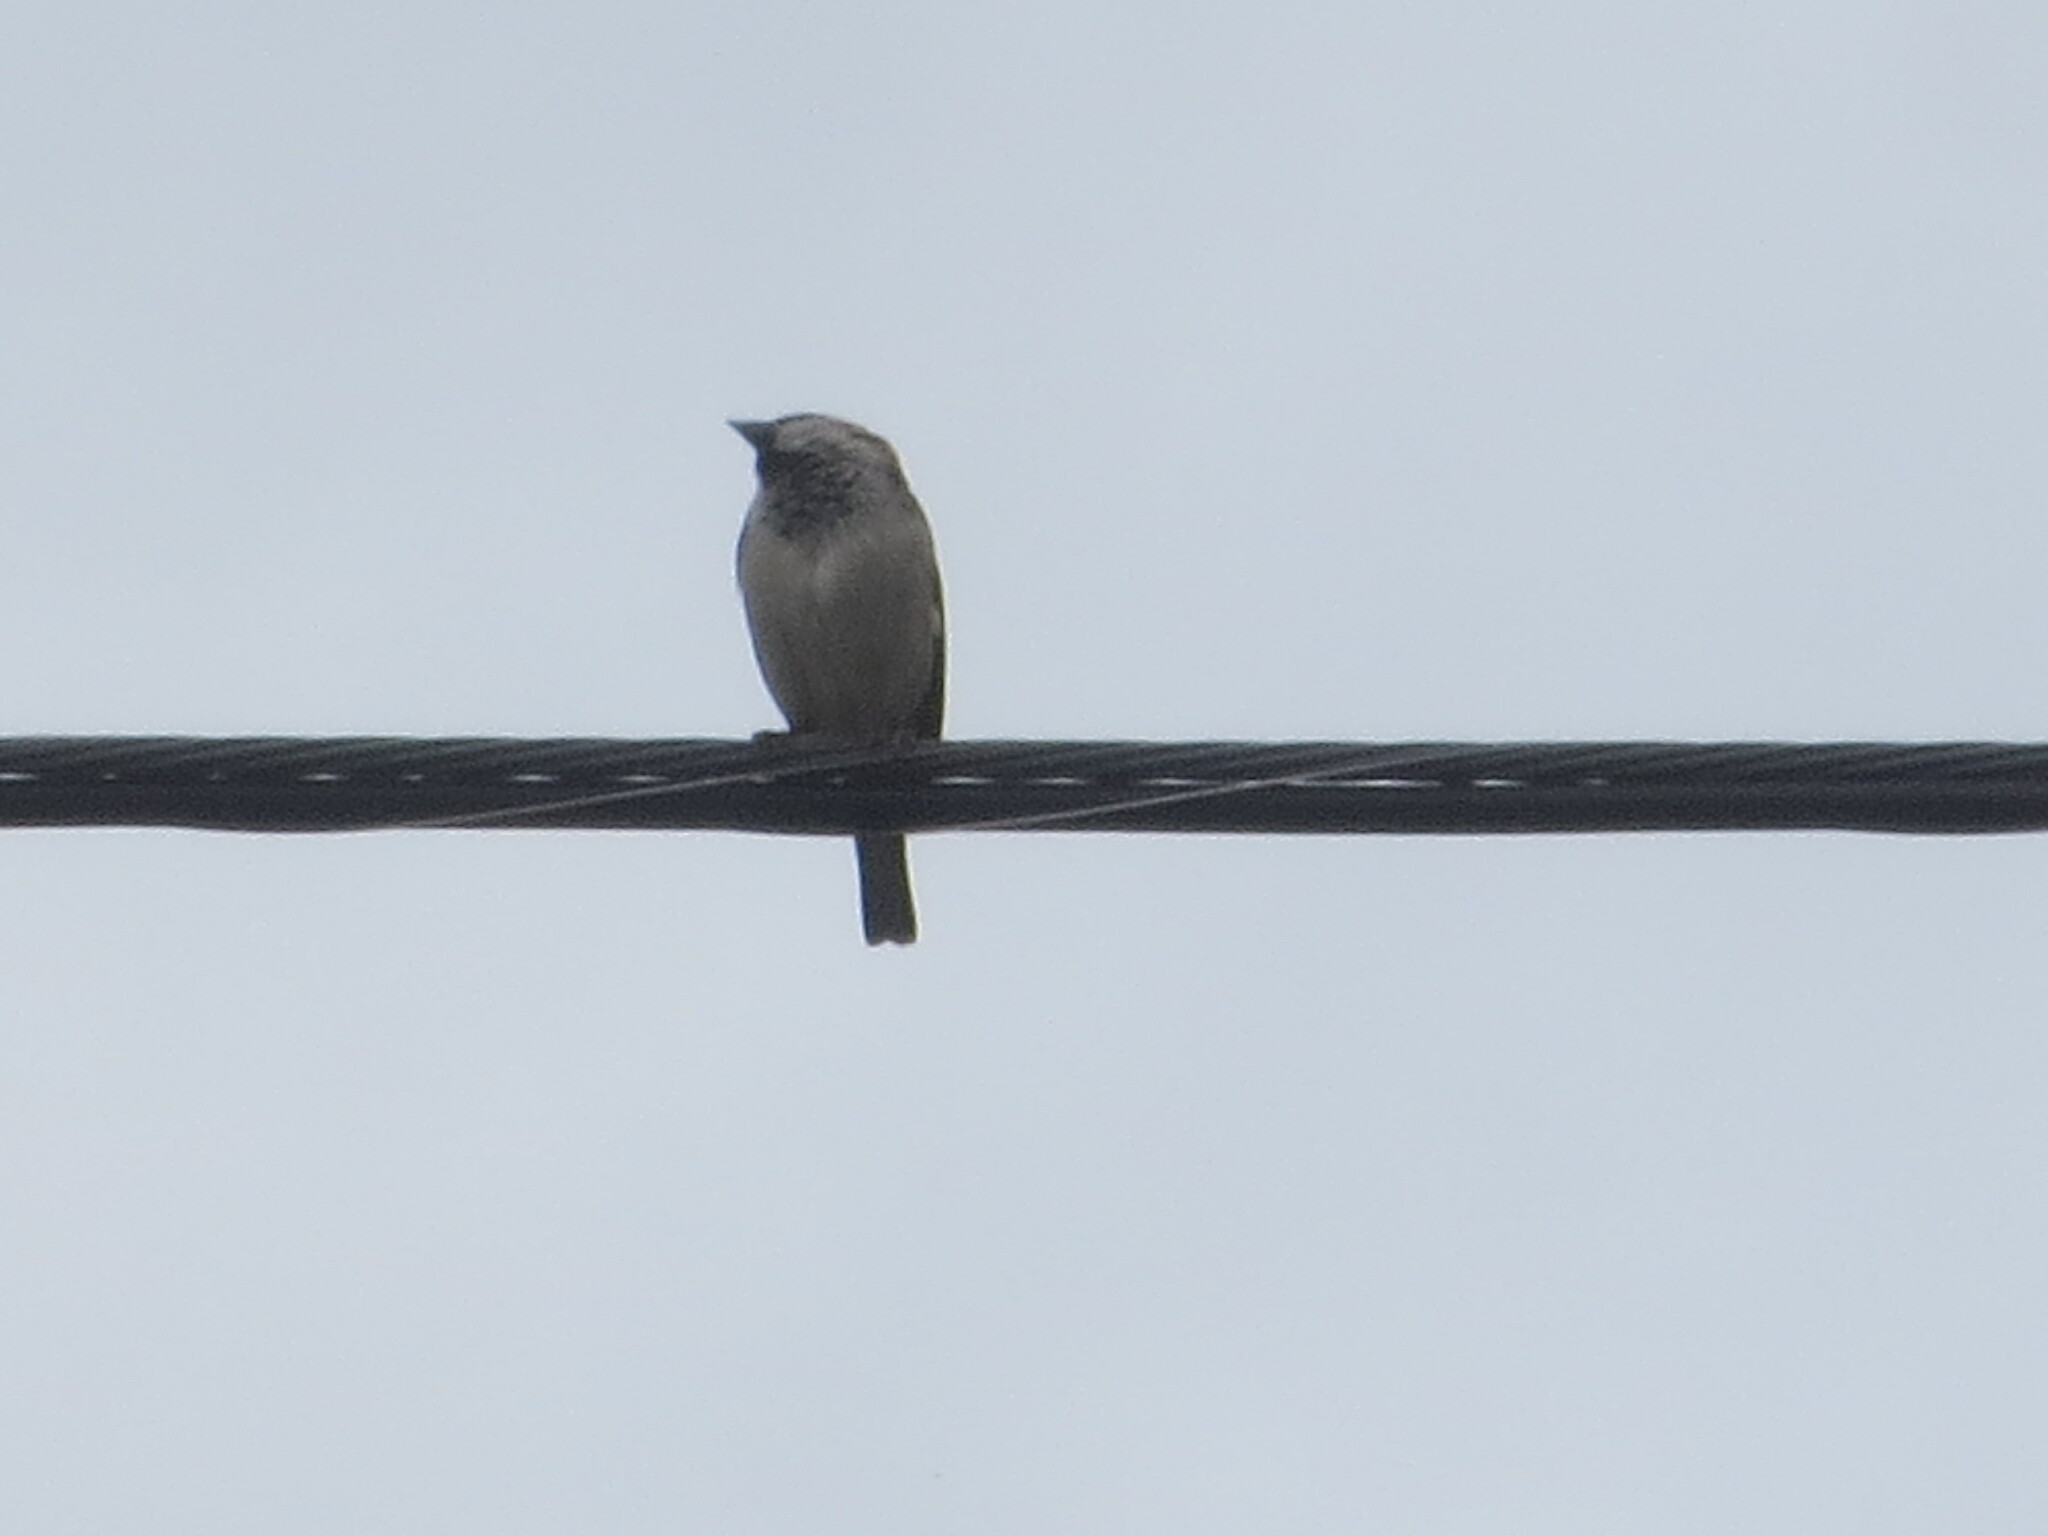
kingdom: Animalia
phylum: Chordata
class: Aves
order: Passeriformes
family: Passeridae
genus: Passer
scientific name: Passer domesticus
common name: House sparrow
